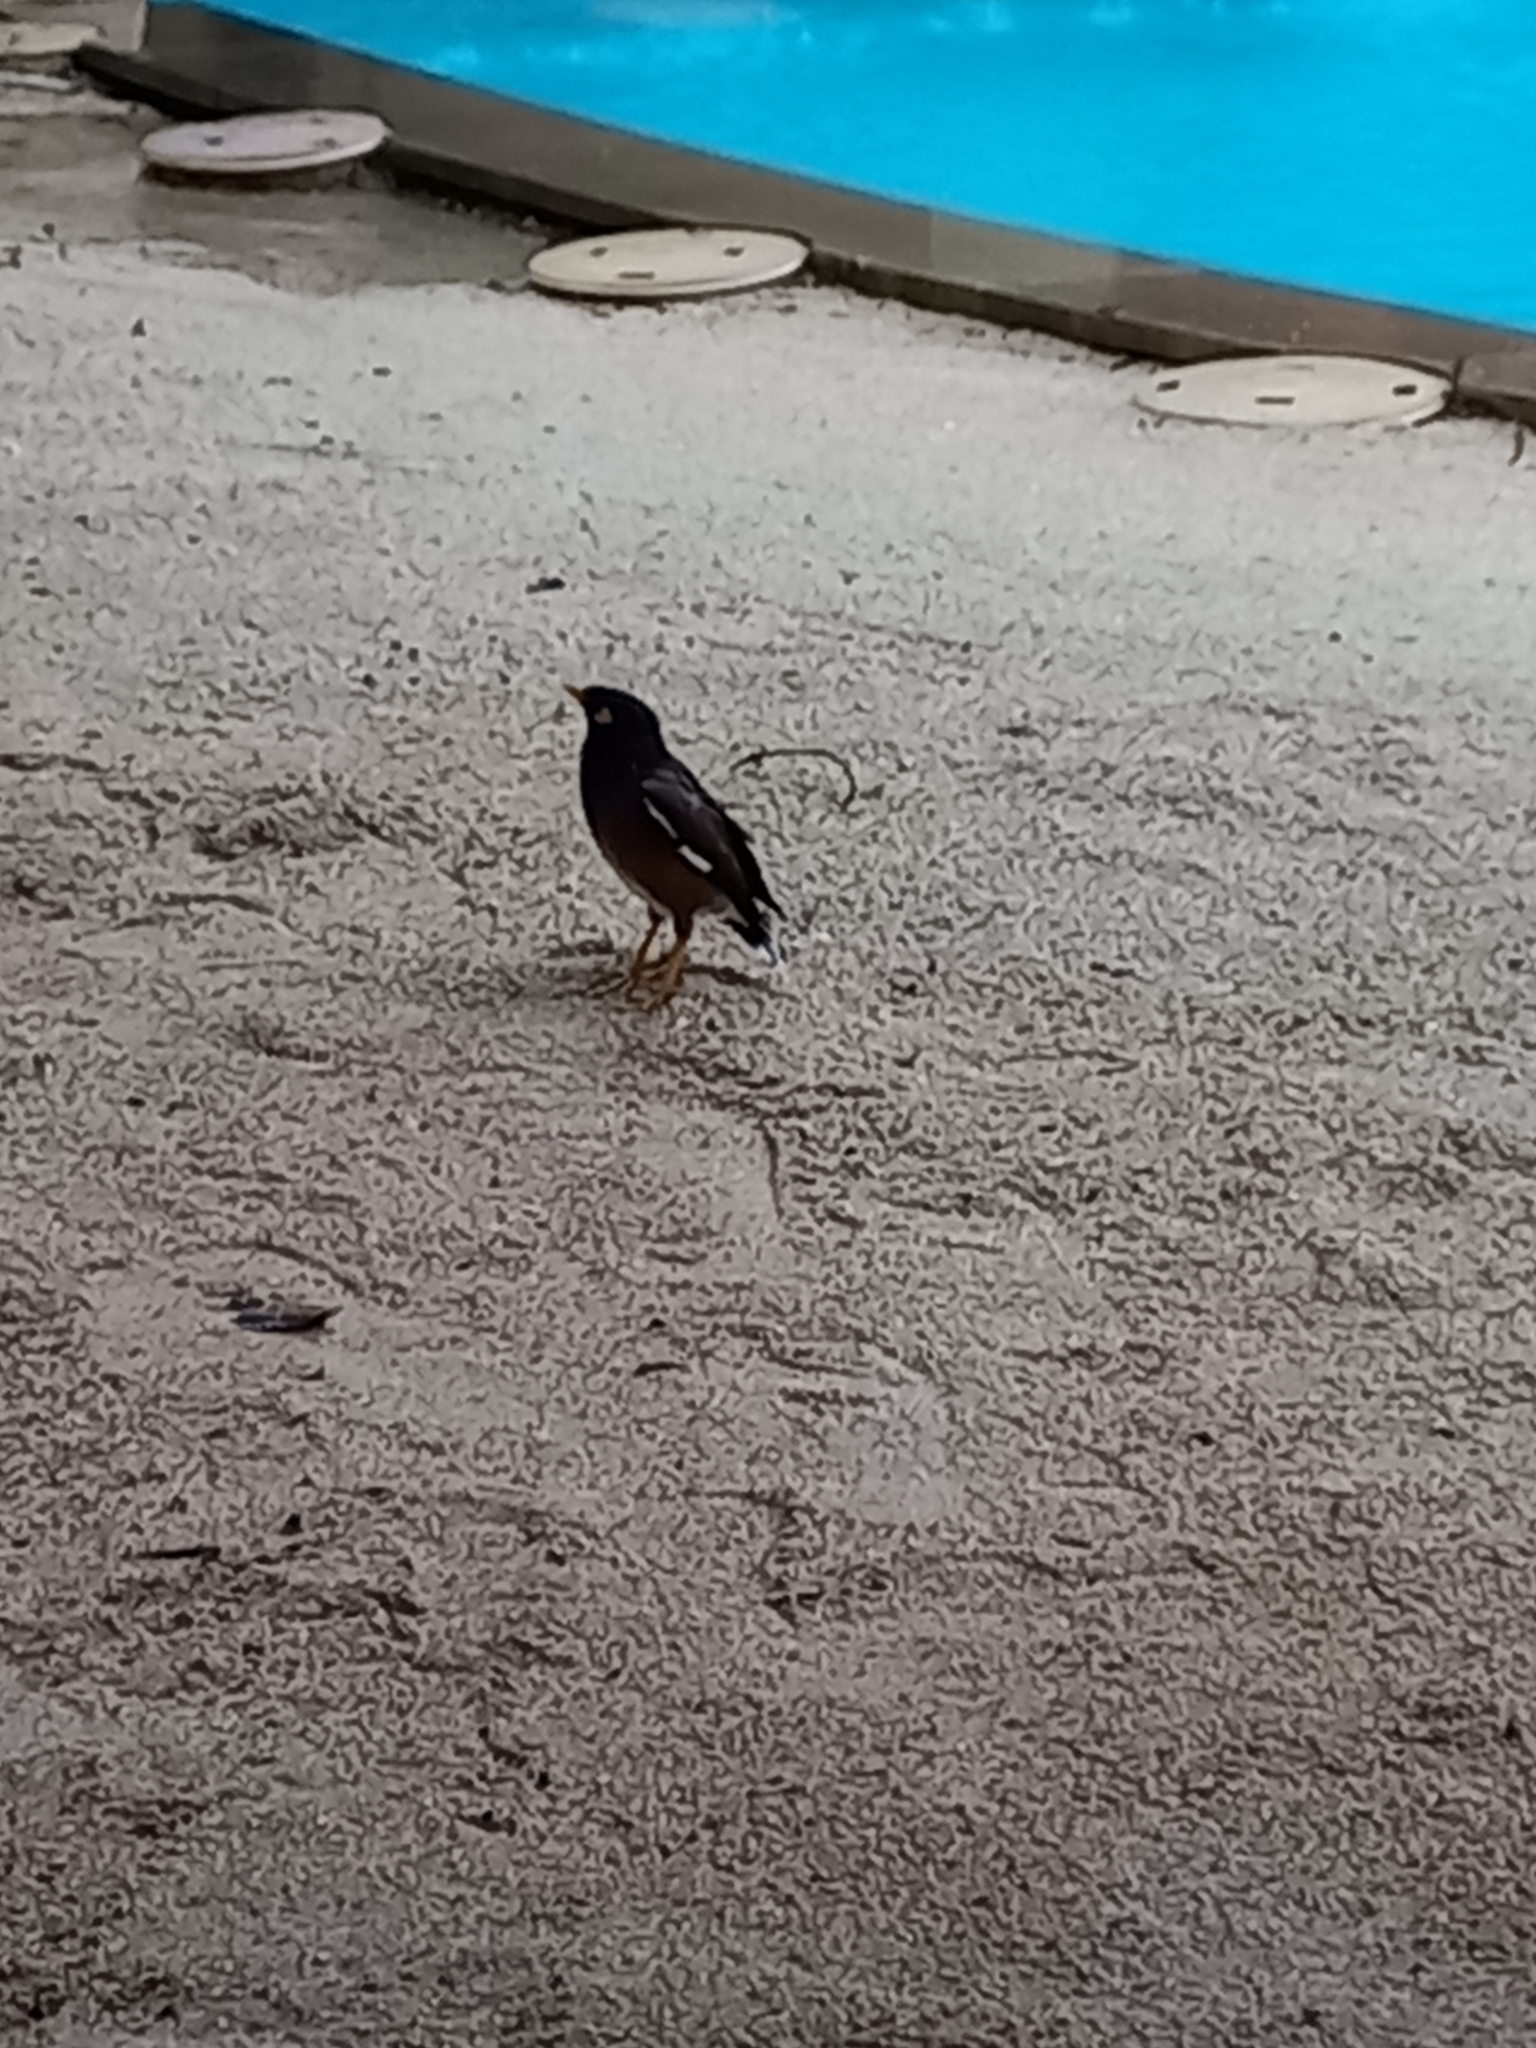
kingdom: Animalia
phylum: Chordata
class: Aves
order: Passeriformes
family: Sturnidae
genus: Acridotheres
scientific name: Acridotheres tristis
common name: Common myna
